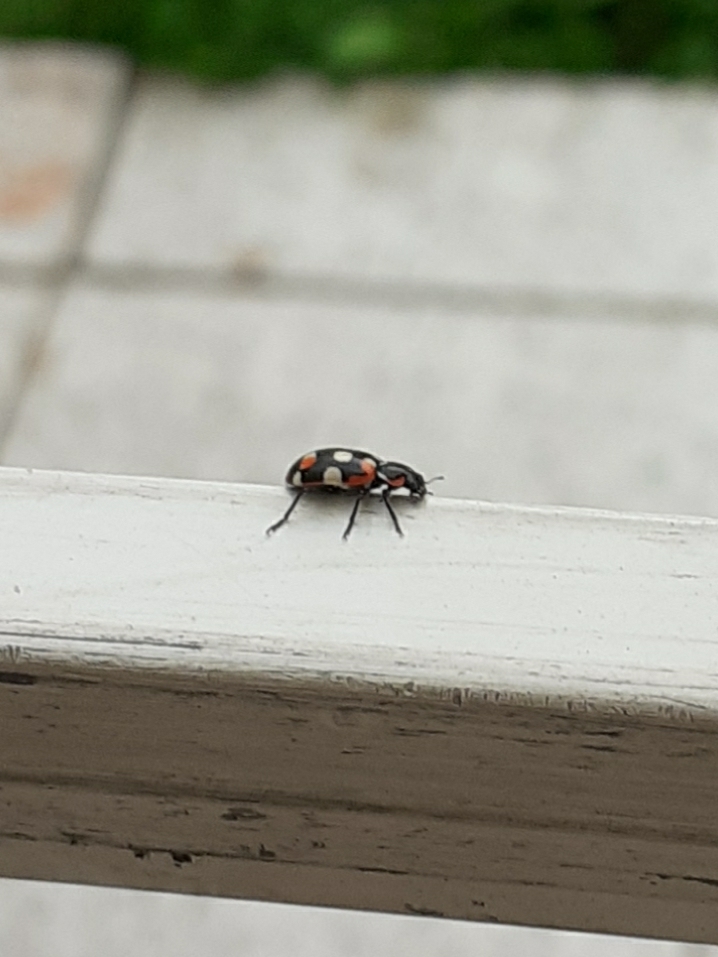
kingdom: Animalia
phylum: Arthropoda
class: Insecta
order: Coleoptera
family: Coccinellidae
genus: Eriopis
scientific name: Eriopis connexa
